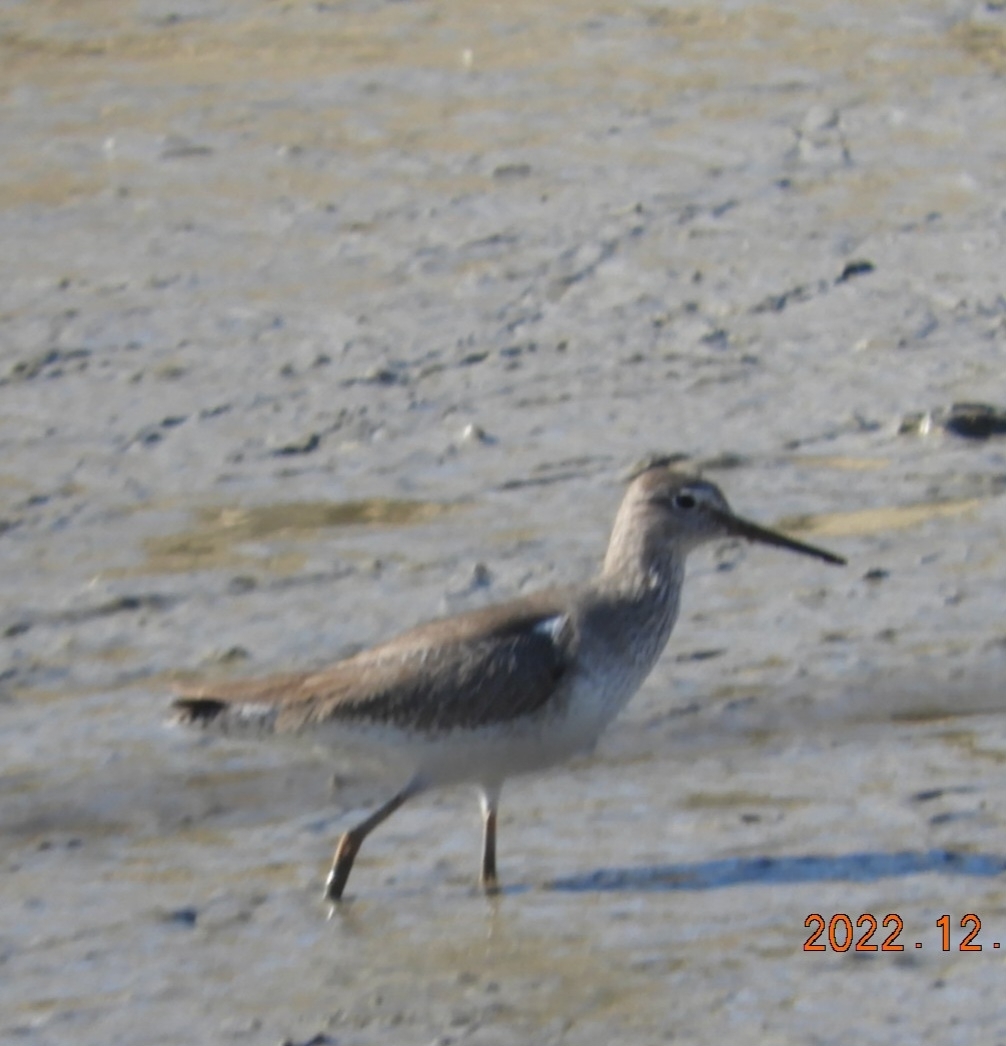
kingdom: Animalia
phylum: Chordata
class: Aves
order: Charadriiformes
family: Scolopacidae
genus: Tringa
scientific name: Tringa totanus
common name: Common redshank
